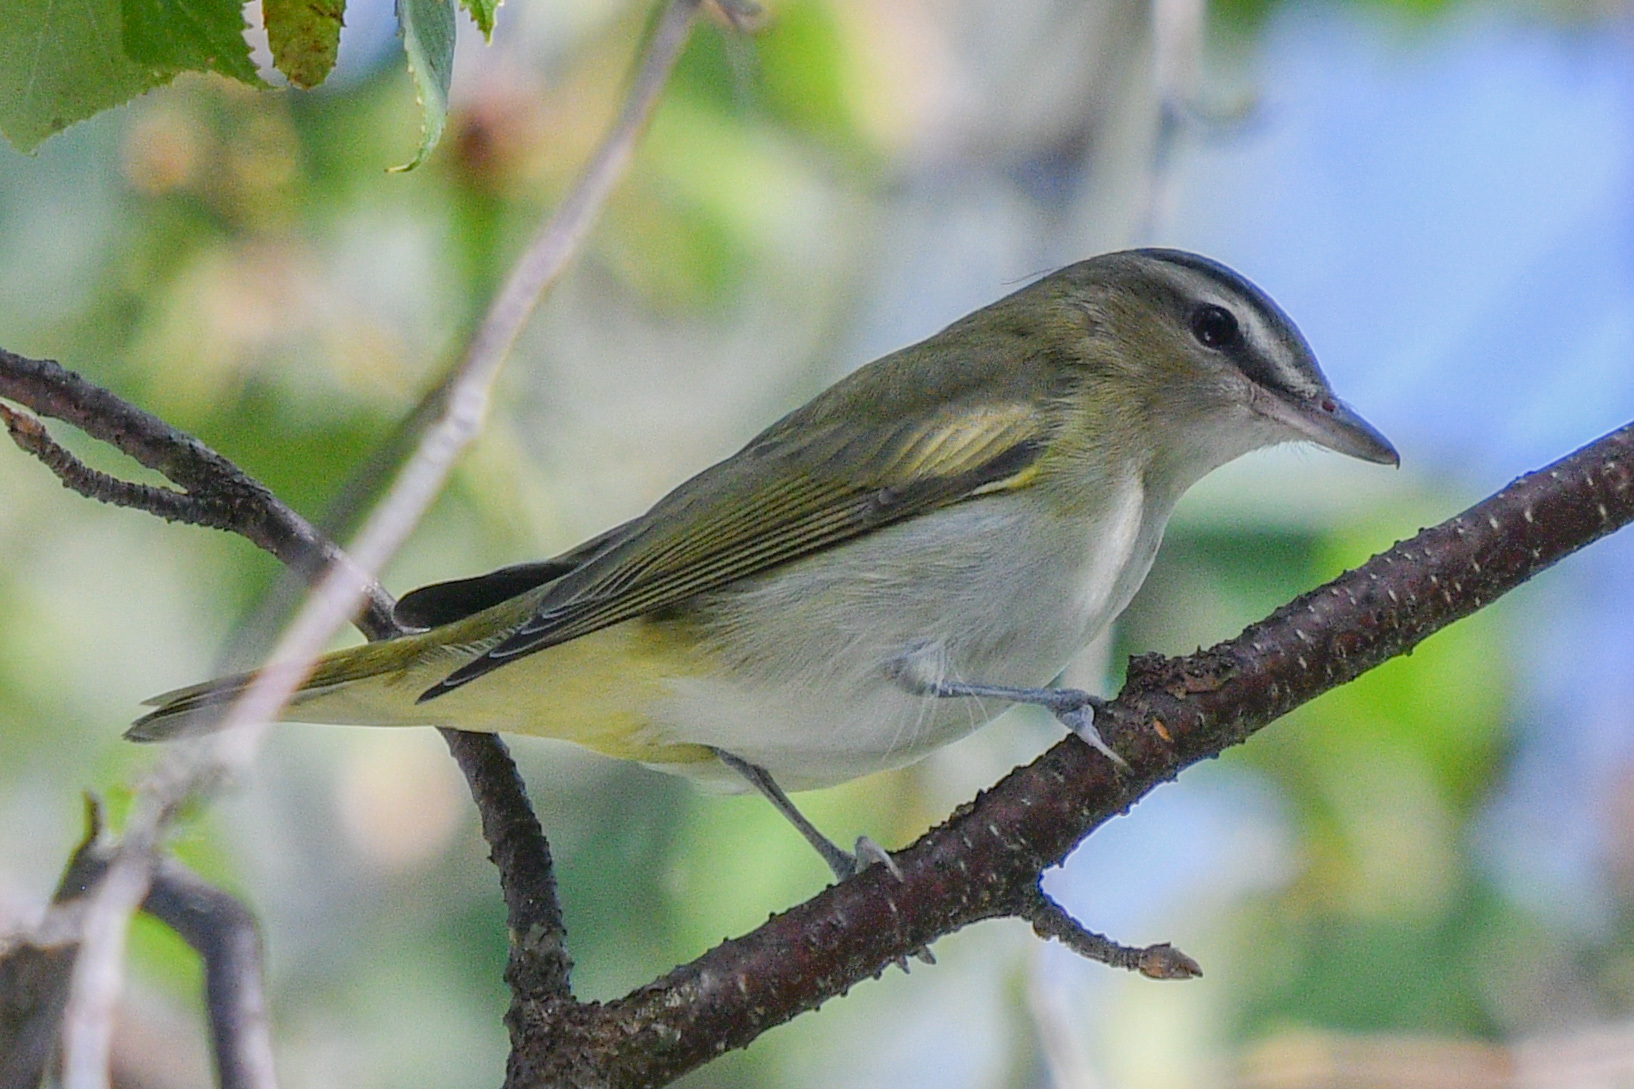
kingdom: Animalia
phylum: Chordata
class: Aves
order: Passeriformes
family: Vireonidae
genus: Vireo
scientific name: Vireo olivaceus
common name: Red-eyed vireo
